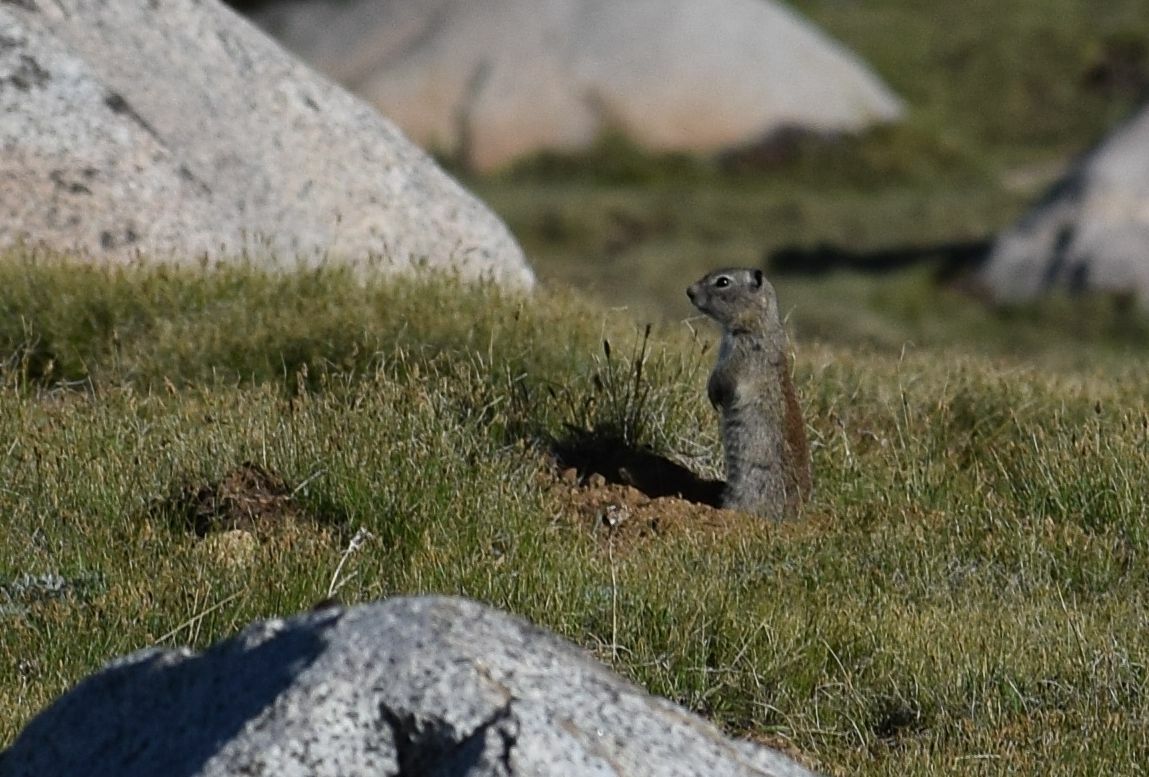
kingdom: Animalia
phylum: Chordata
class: Mammalia
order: Rodentia
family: Sciuridae
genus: Urocitellus
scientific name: Urocitellus beldingi
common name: Belding's ground squirrel
